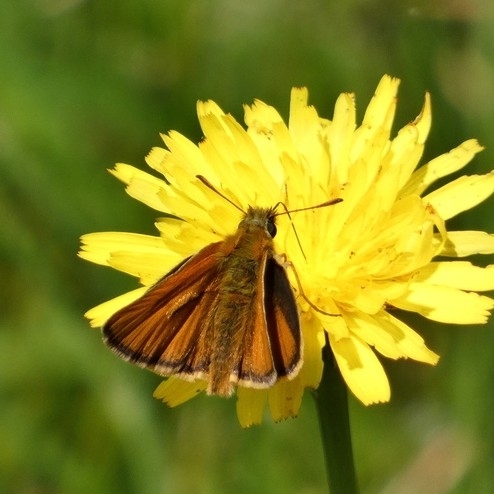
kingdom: Animalia
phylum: Arthropoda
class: Insecta
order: Lepidoptera
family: Hesperiidae
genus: Thymelicus
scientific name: Thymelicus sylvestris
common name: Small skipper
